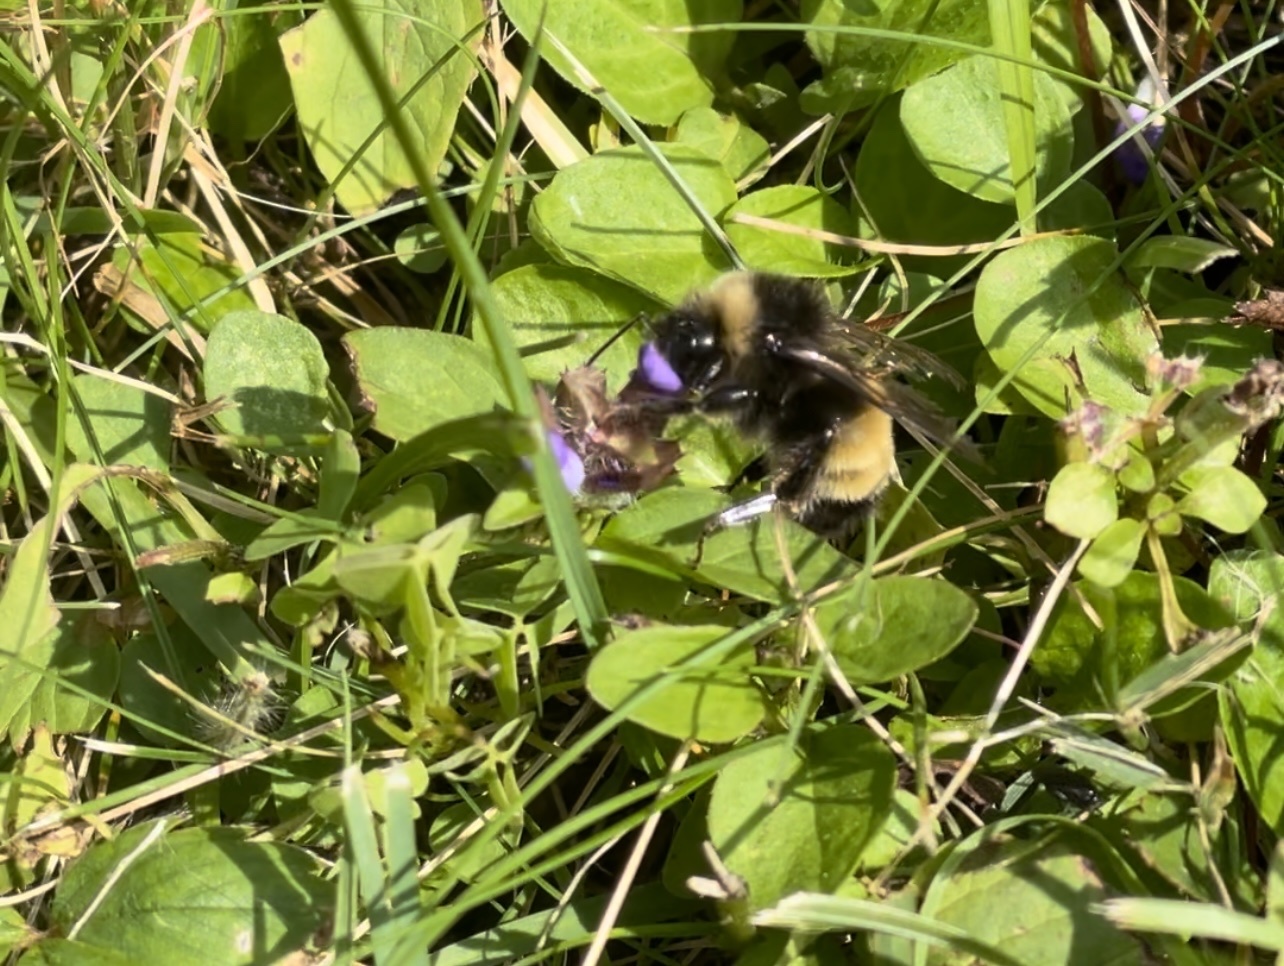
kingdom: Animalia
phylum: Arthropoda
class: Insecta
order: Hymenoptera
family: Apidae
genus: Bombus
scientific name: Bombus terricola
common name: Yellow-banded bumble bee
